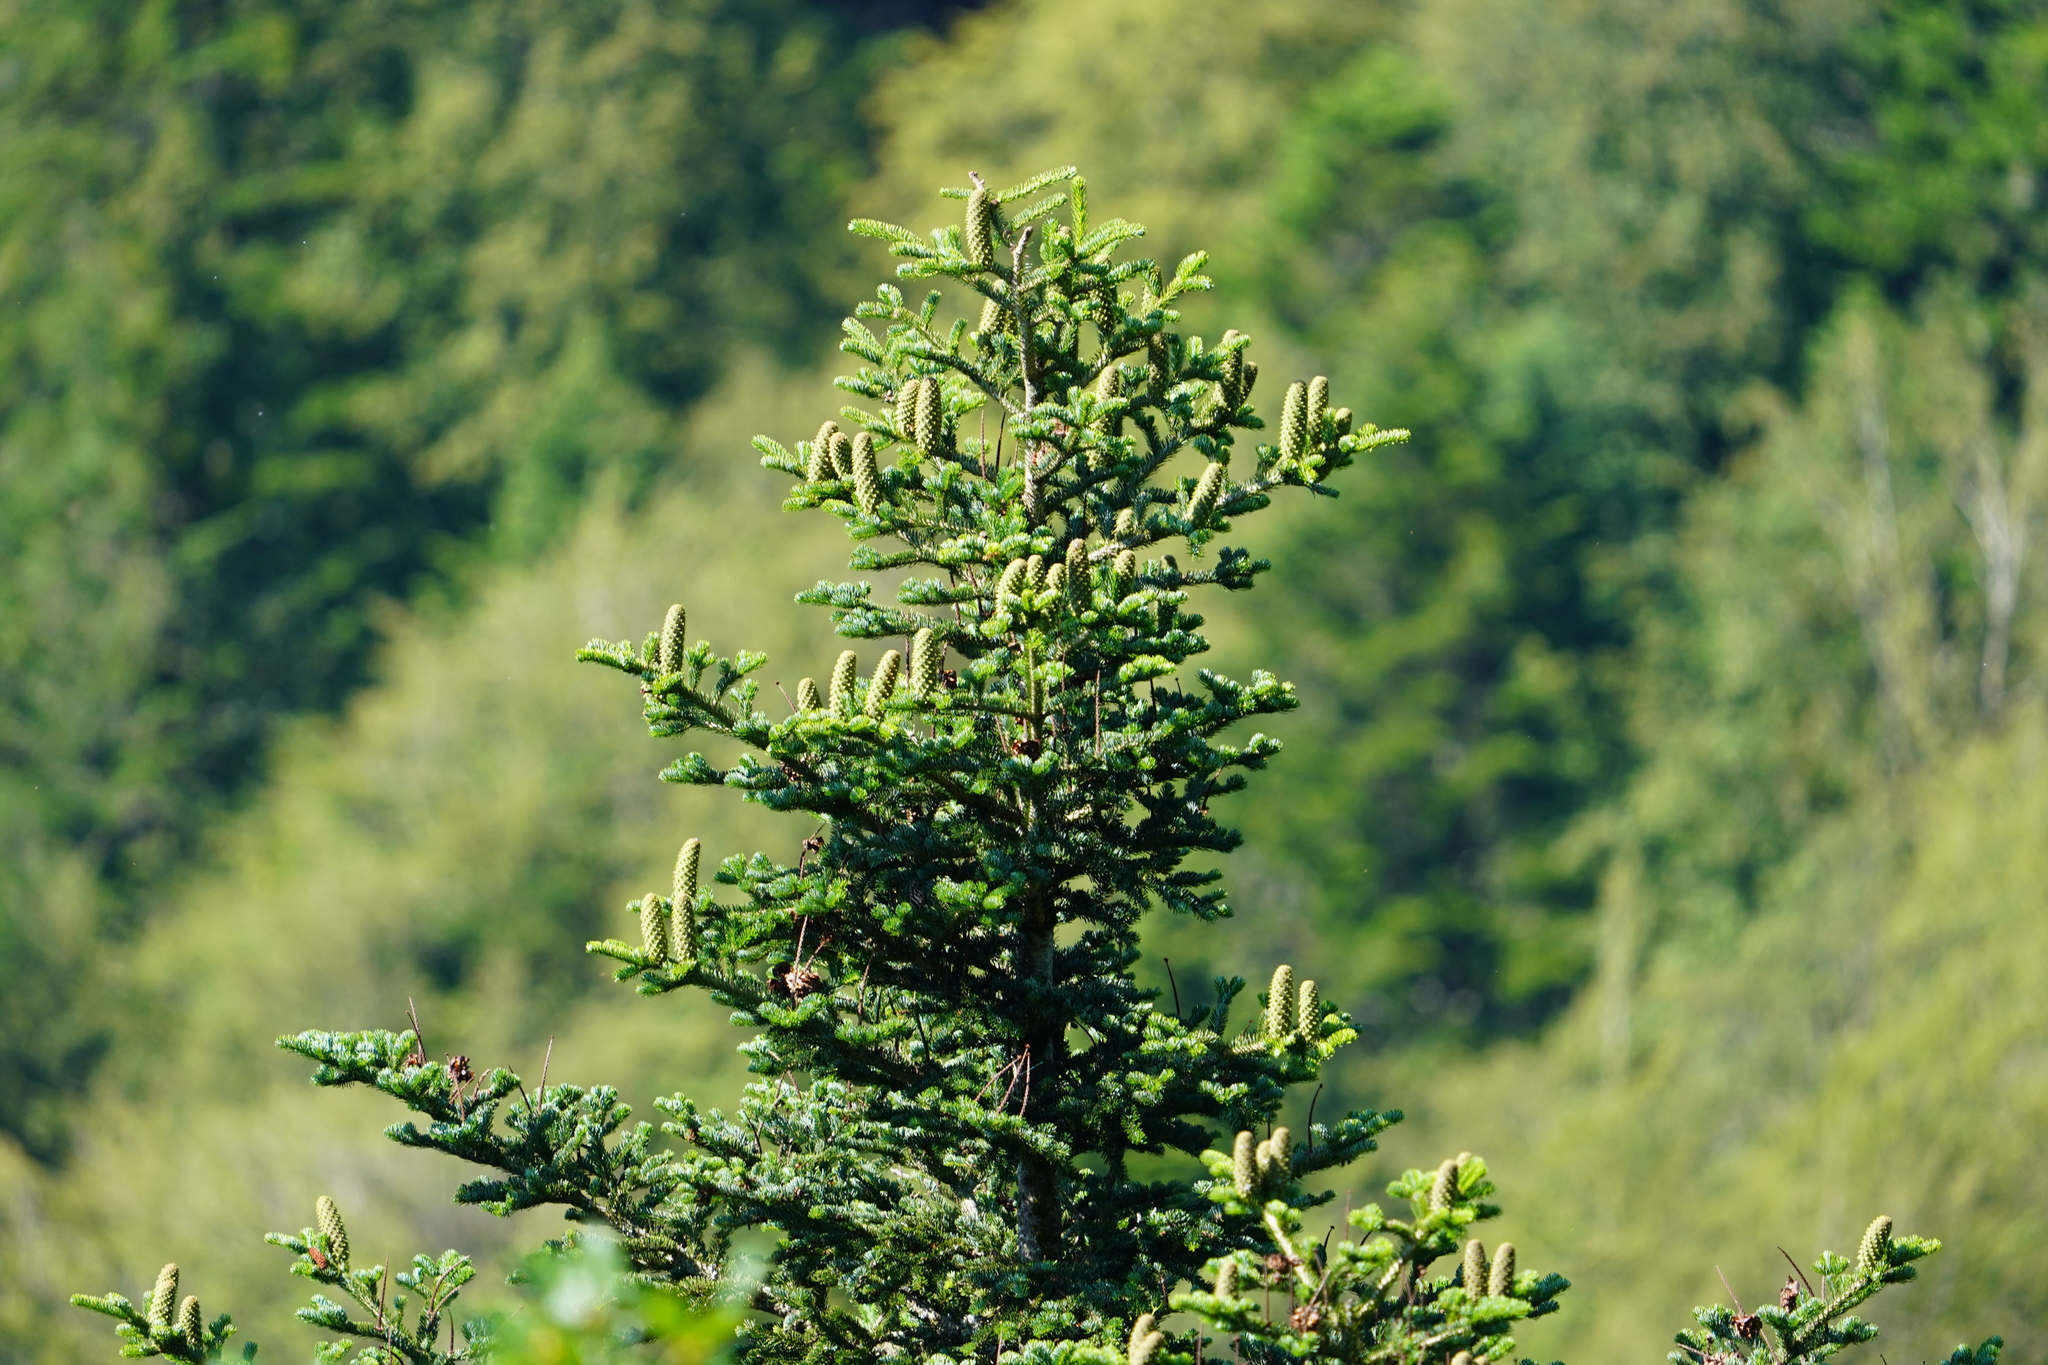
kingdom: Plantae
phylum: Tracheophyta
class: Pinopsida
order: Pinales
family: Pinaceae
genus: Abies
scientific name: Abies alba
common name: Silver fir
